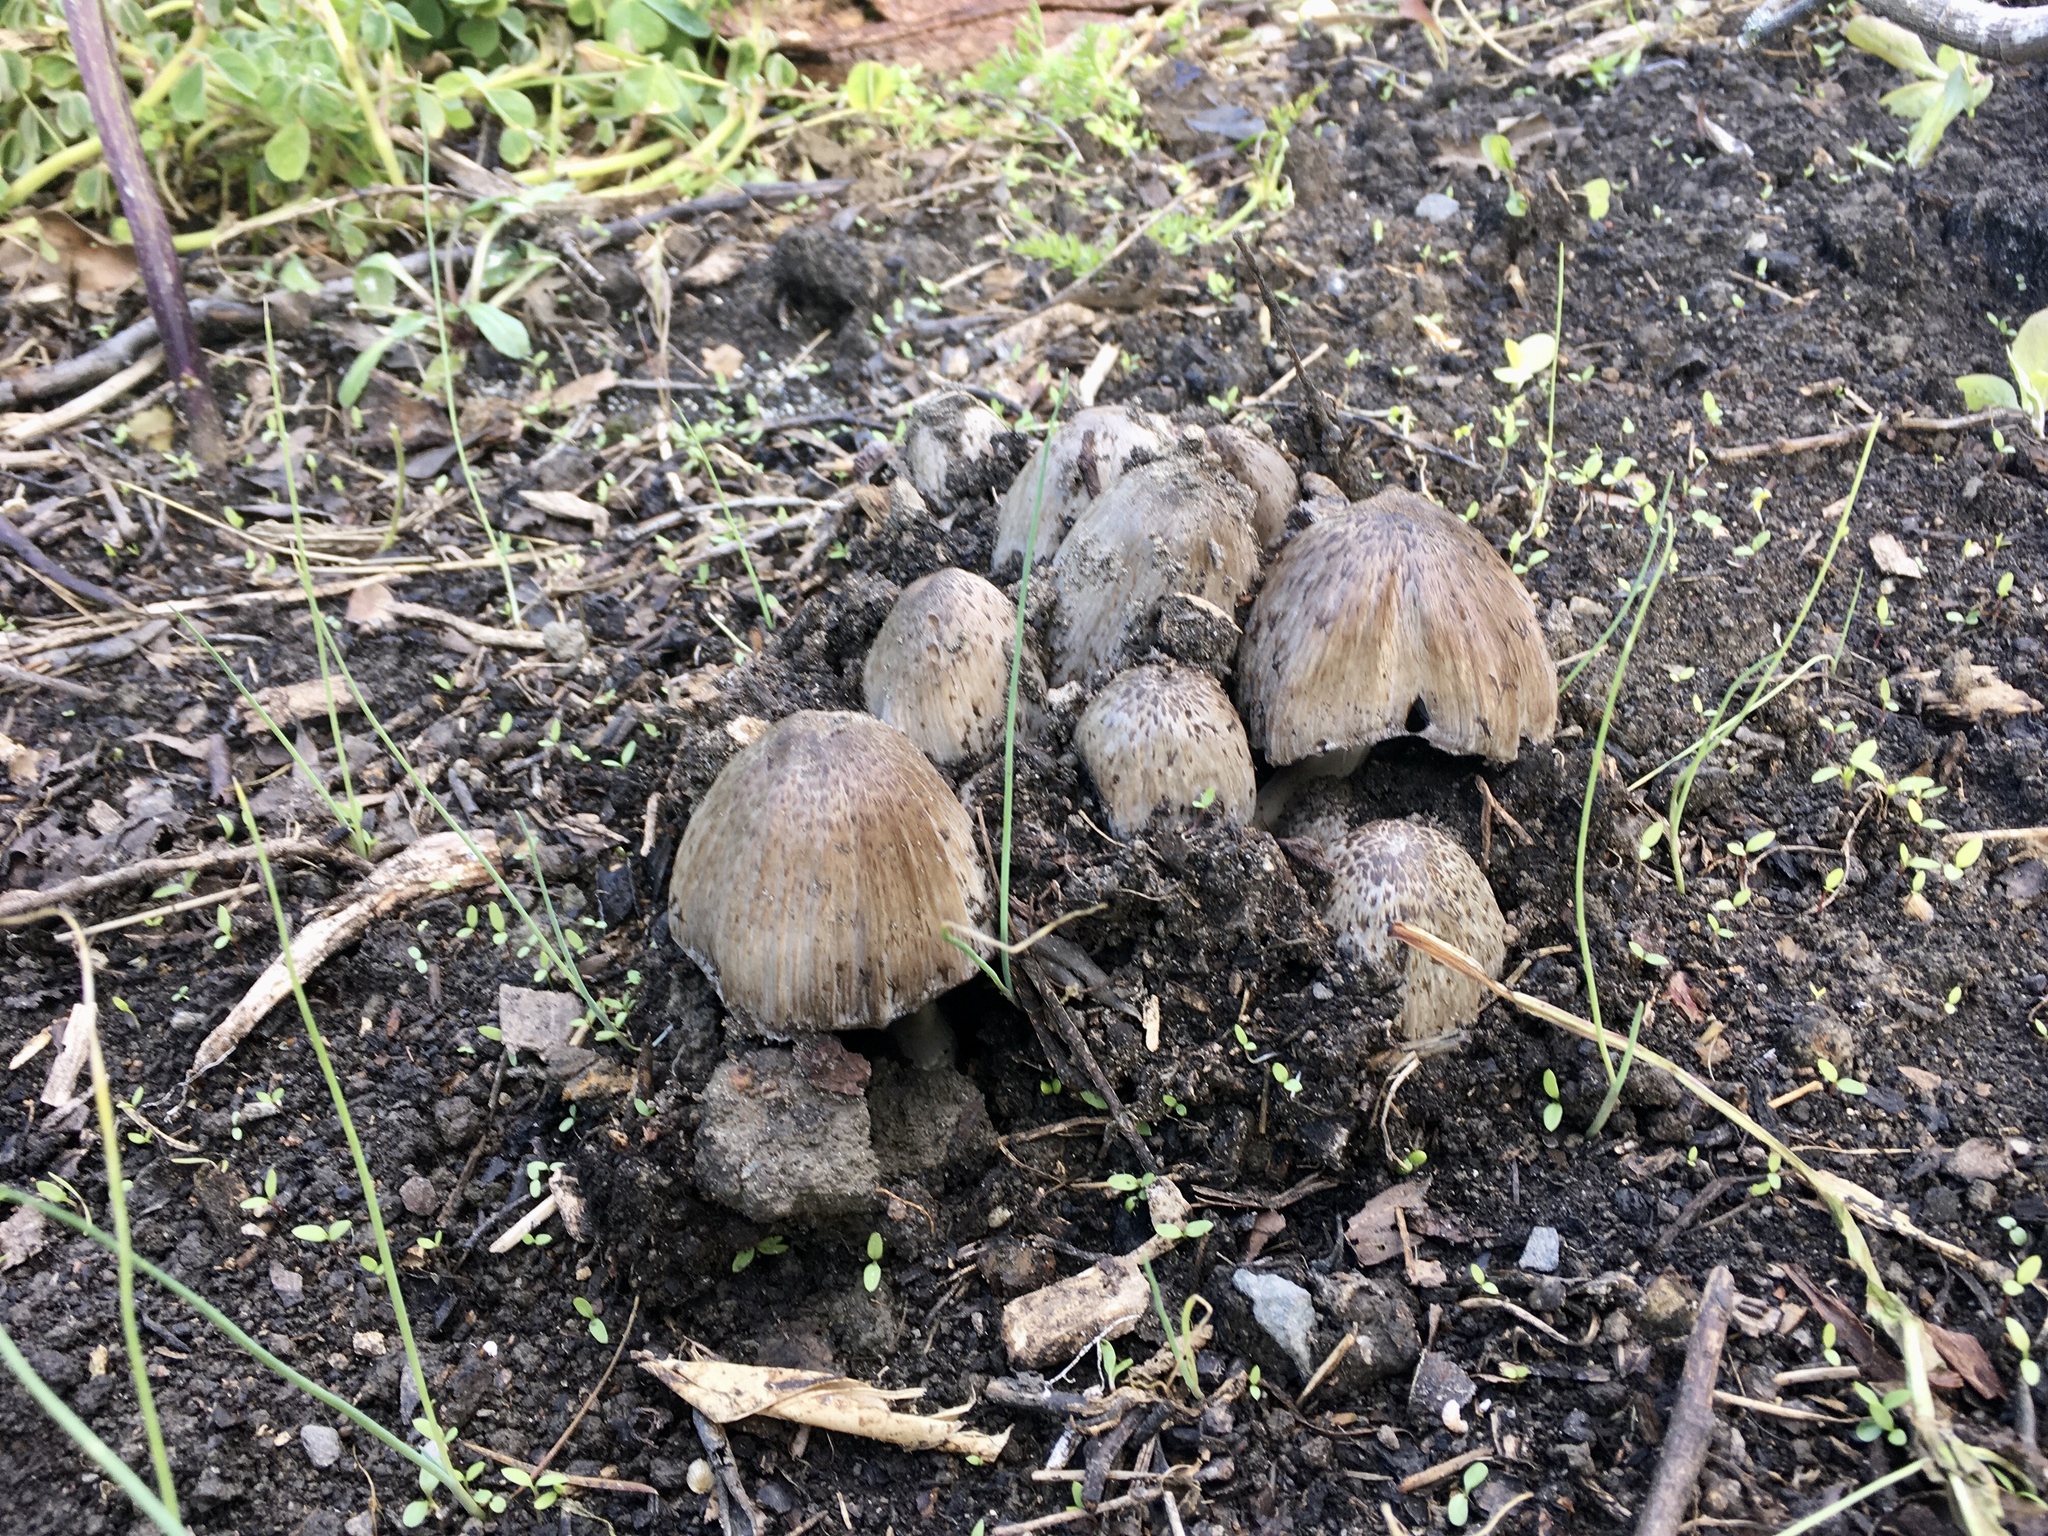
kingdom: Fungi
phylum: Basidiomycota
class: Agaricomycetes
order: Agaricales
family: Psathyrellaceae
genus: Coprinopsis
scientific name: Coprinopsis atramentaria
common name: Common ink-cap
